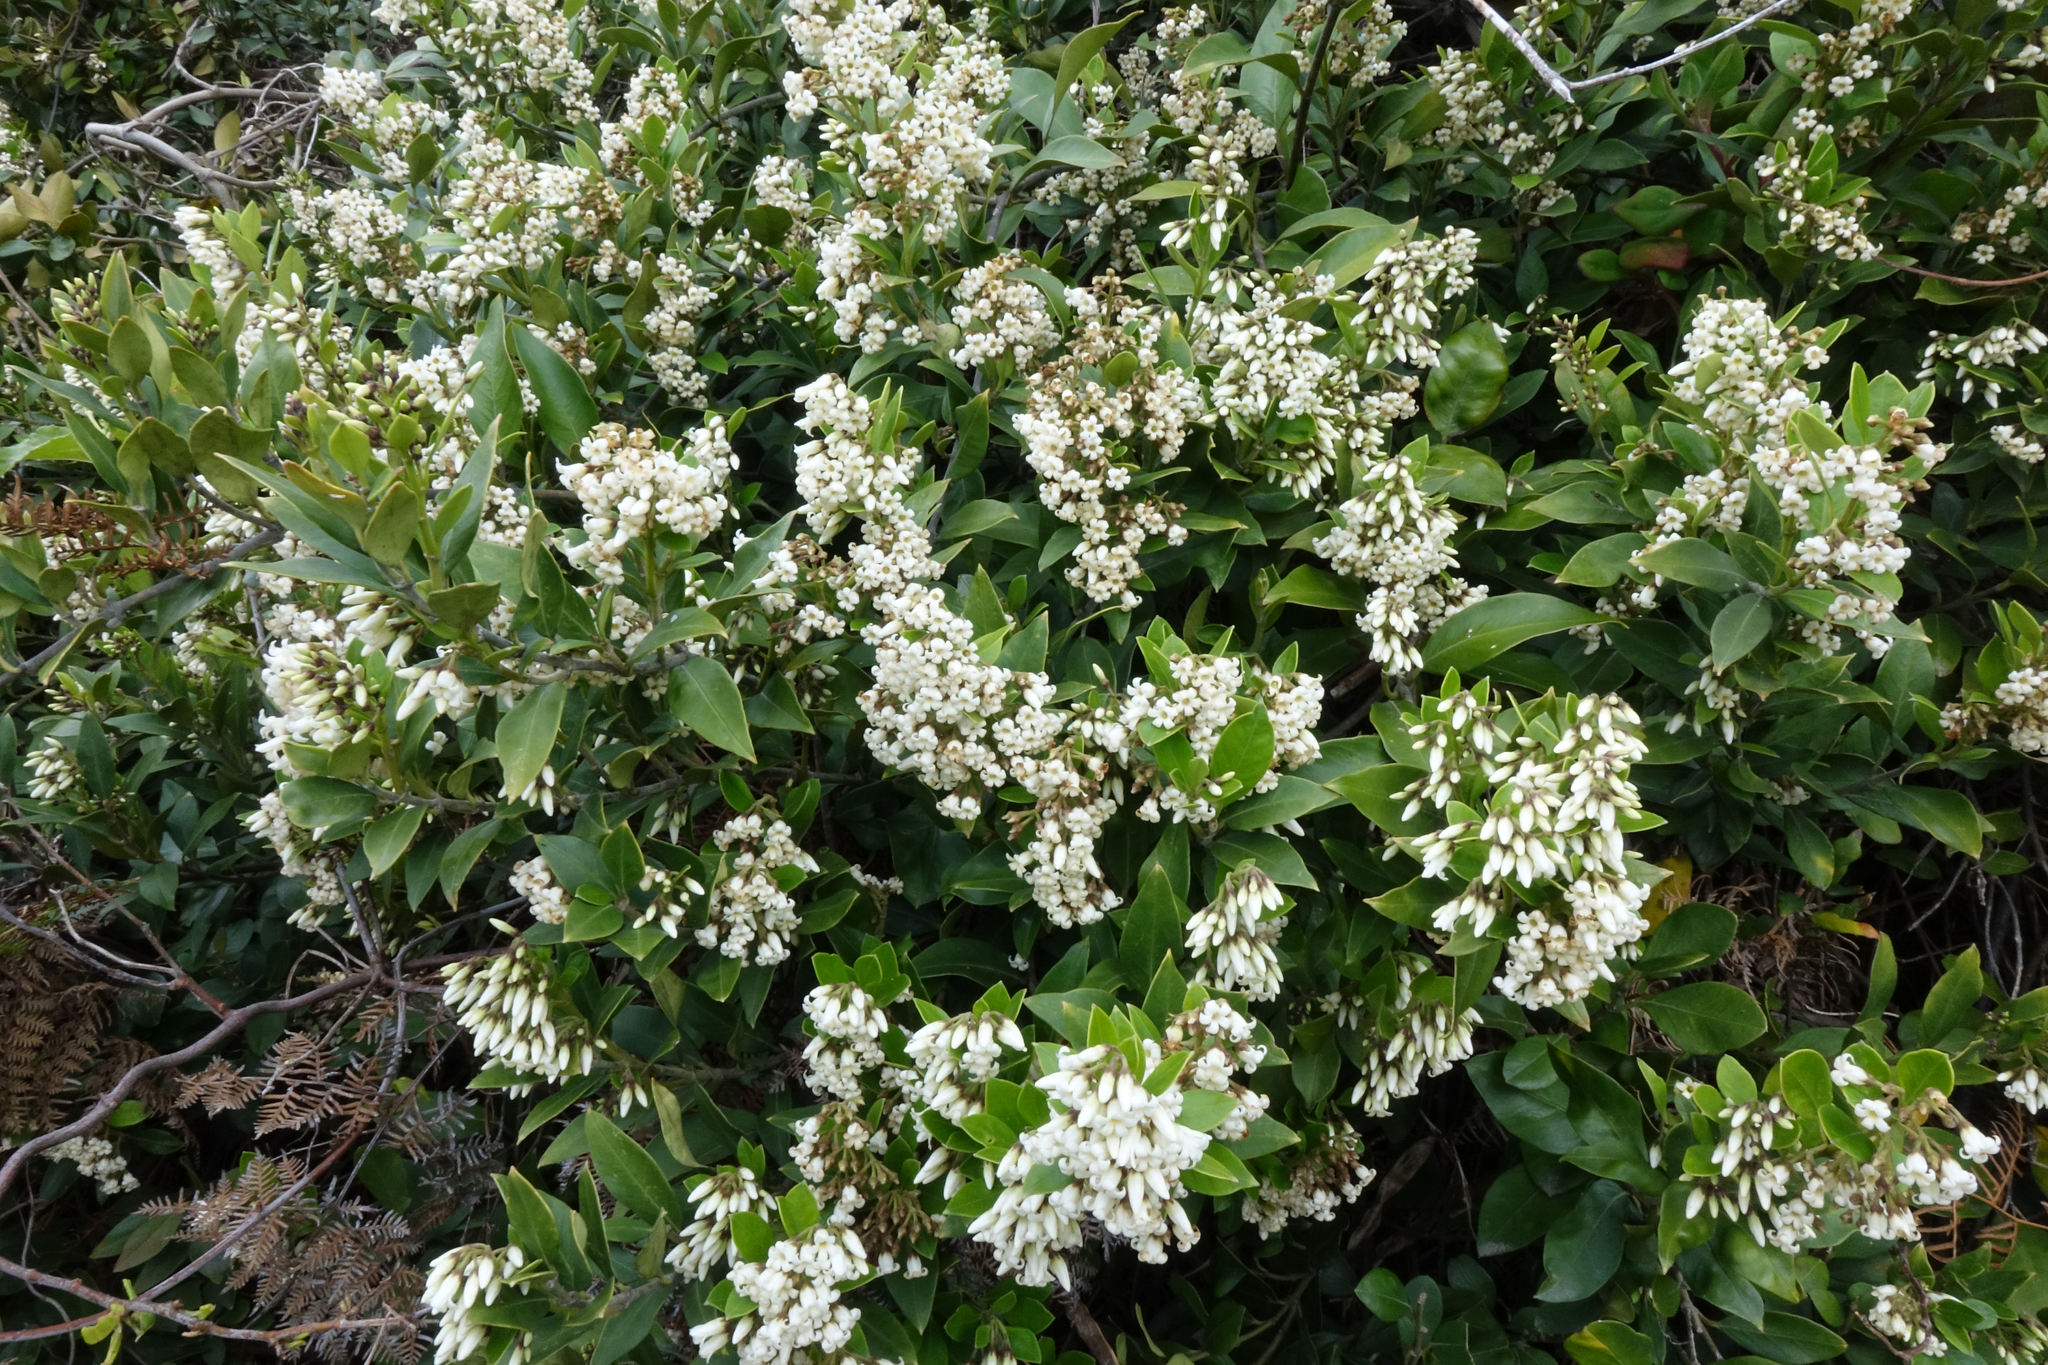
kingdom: Plantae
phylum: Tracheophyta
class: Magnoliopsida
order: Gentianales
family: Apocynaceae
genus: Parsonsia
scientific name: Parsonsia heterophylla
